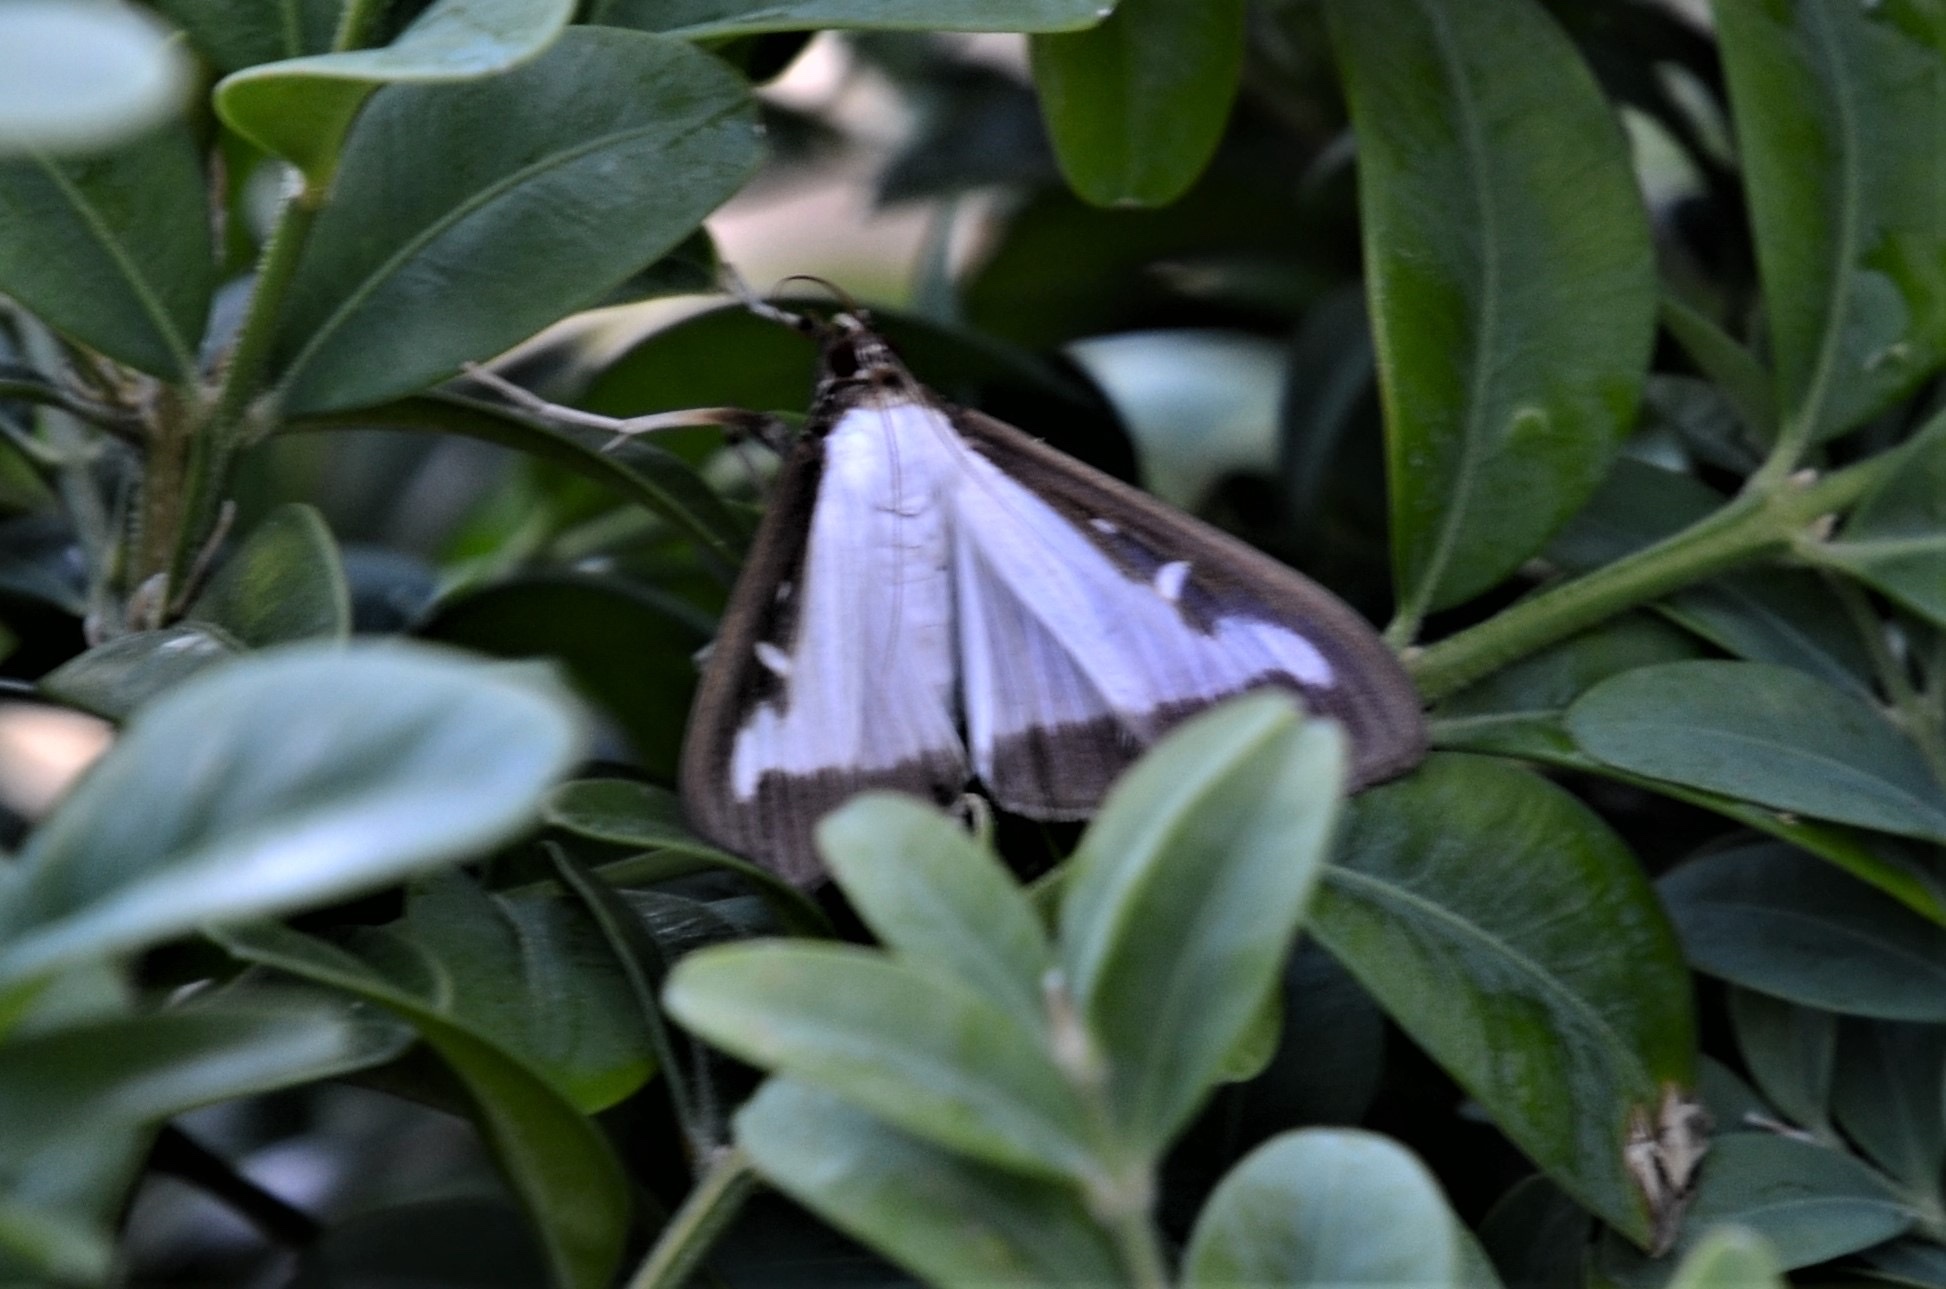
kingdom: Animalia
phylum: Arthropoda
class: Insecta
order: Lepidoptera
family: Crambidae
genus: Cydalima
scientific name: Cydalima perspectalis
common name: Box tree moth
